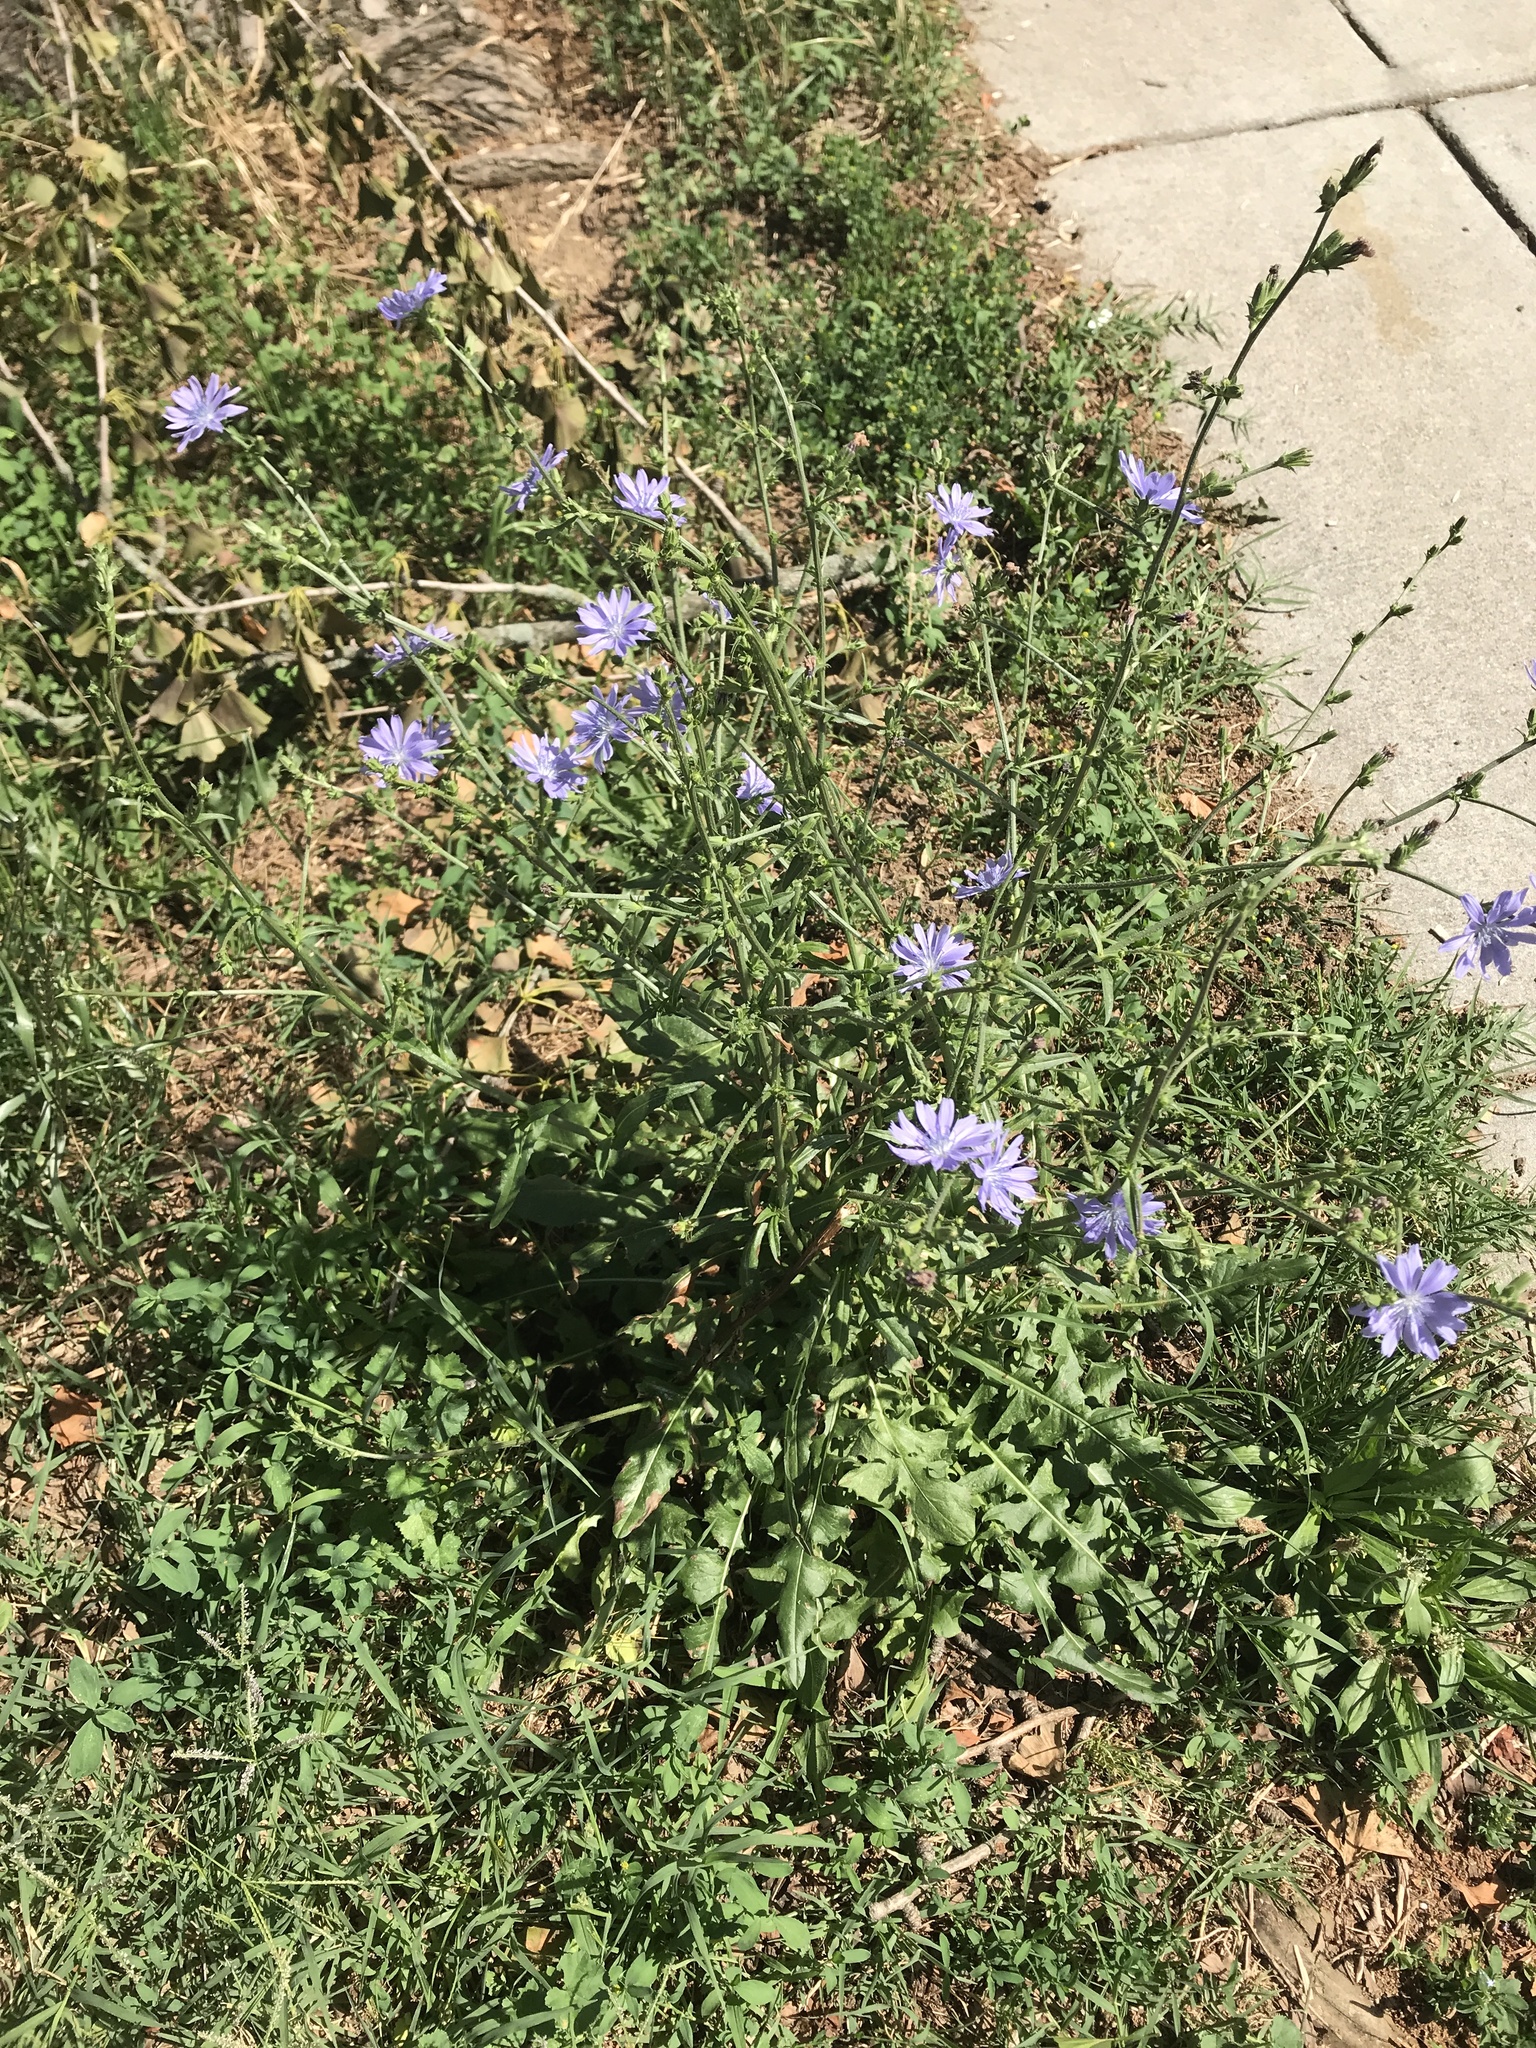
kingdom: Plantae
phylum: Tracheophyta
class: Magnoliopsida
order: Asterales
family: Asteraceae
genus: Cichorium
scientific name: Cichorium intybus
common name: Chicory
